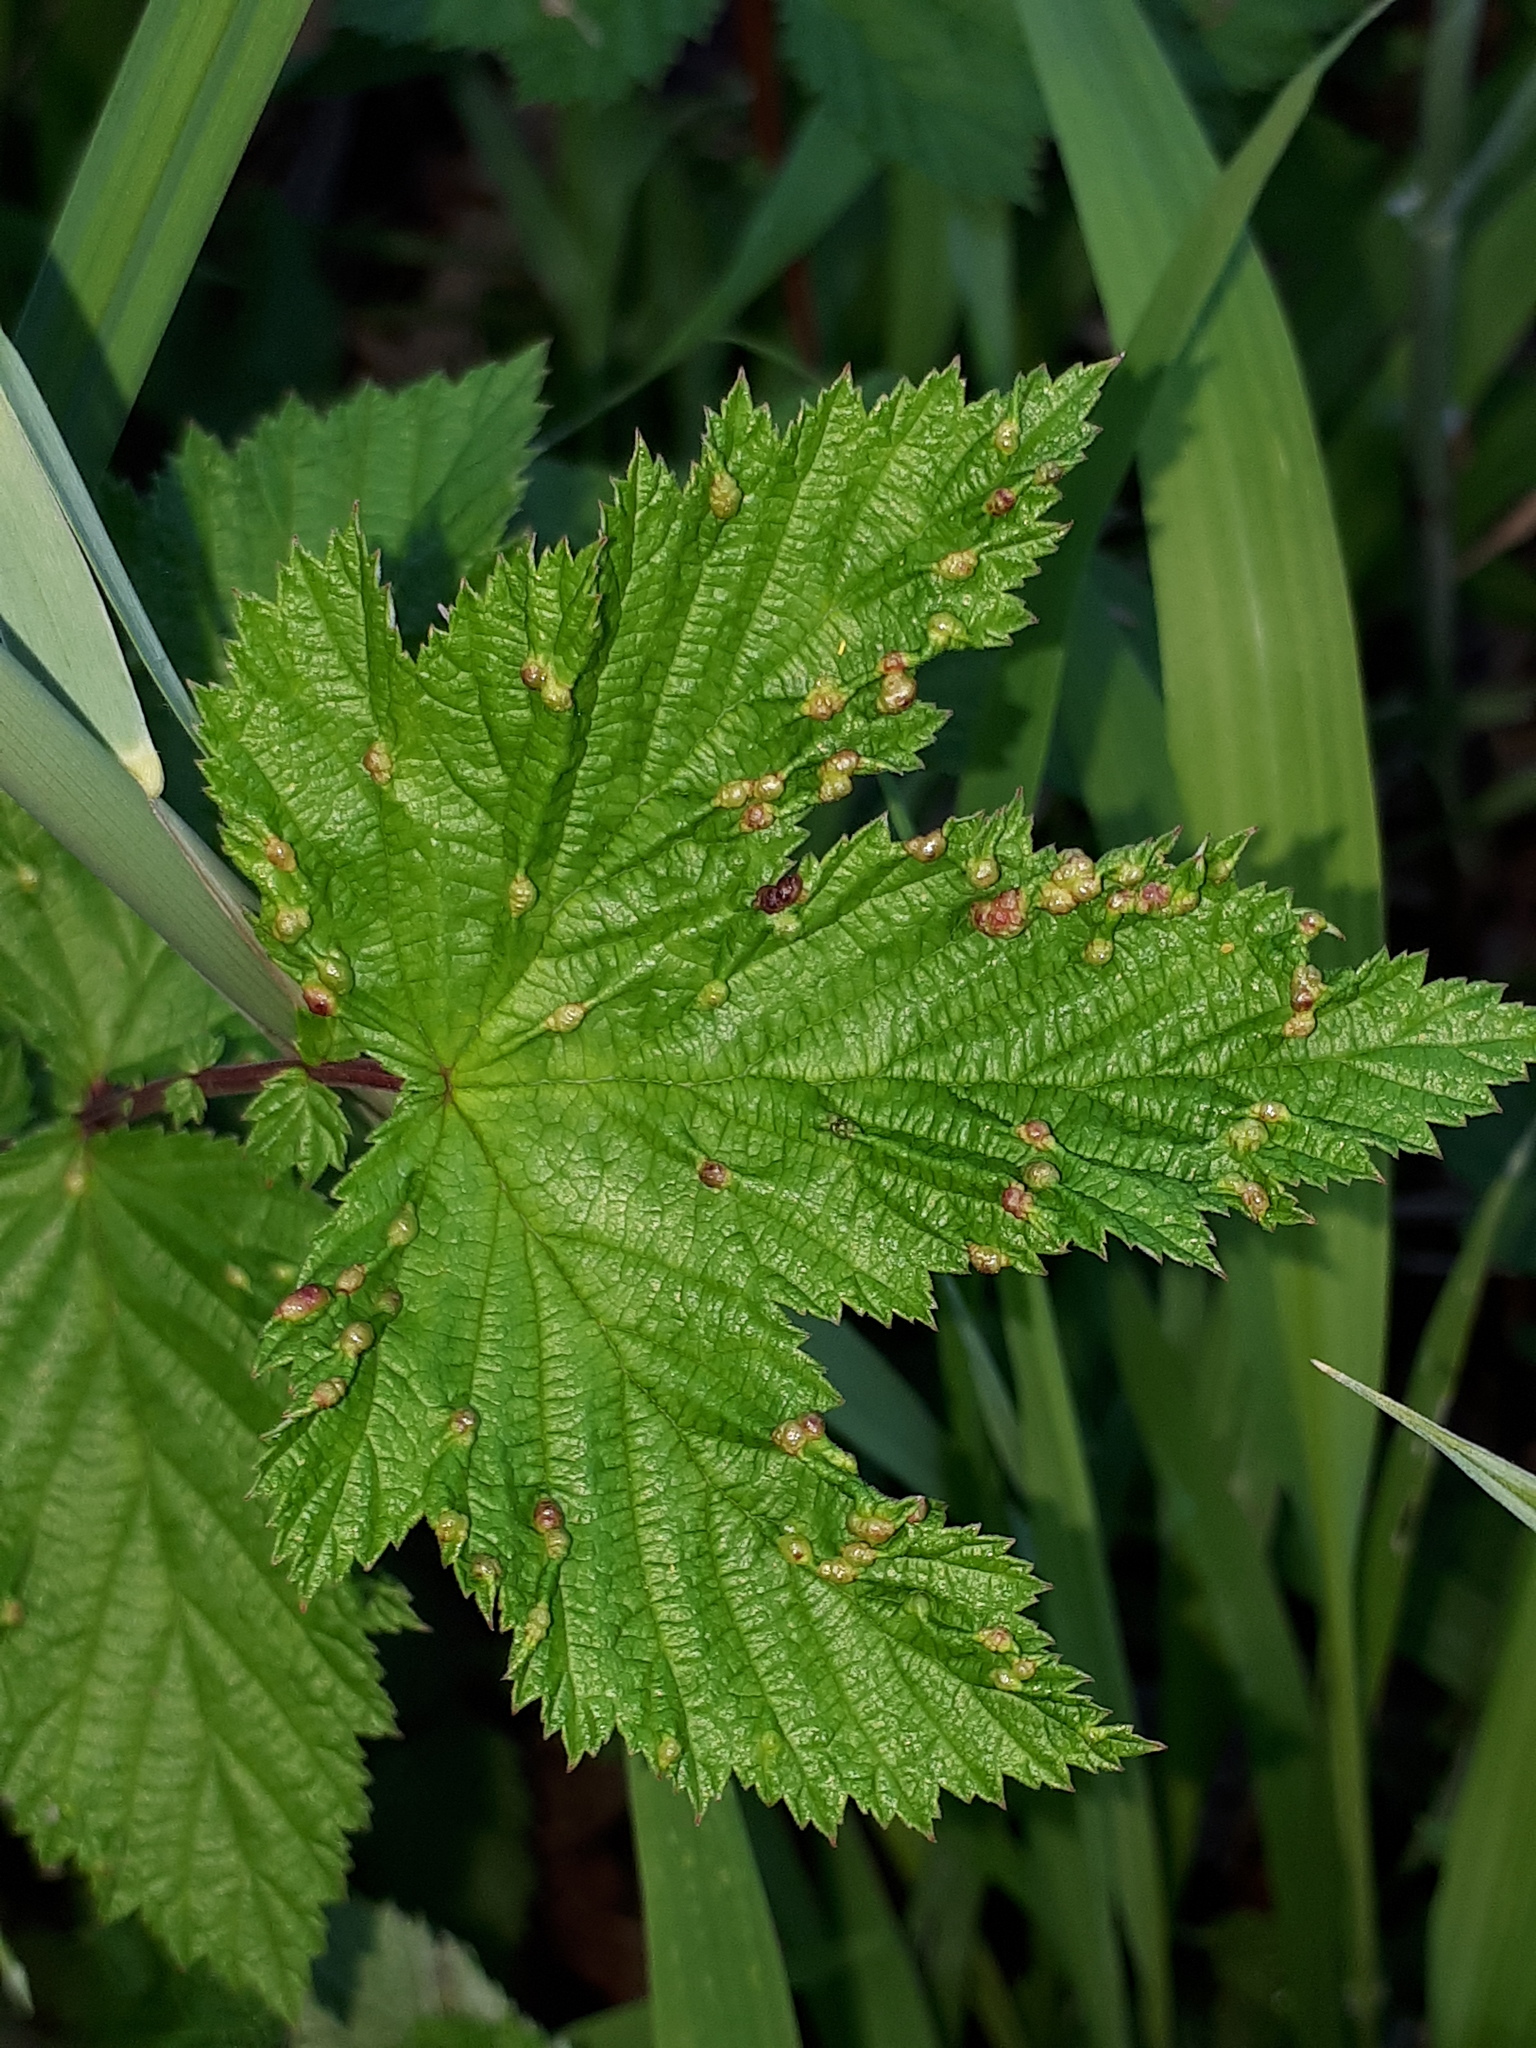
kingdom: Animalia
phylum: Arthropoda
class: Insecta
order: Diptera
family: Cecidomyiidae
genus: Dasineura
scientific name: Dasineura ulmaria
